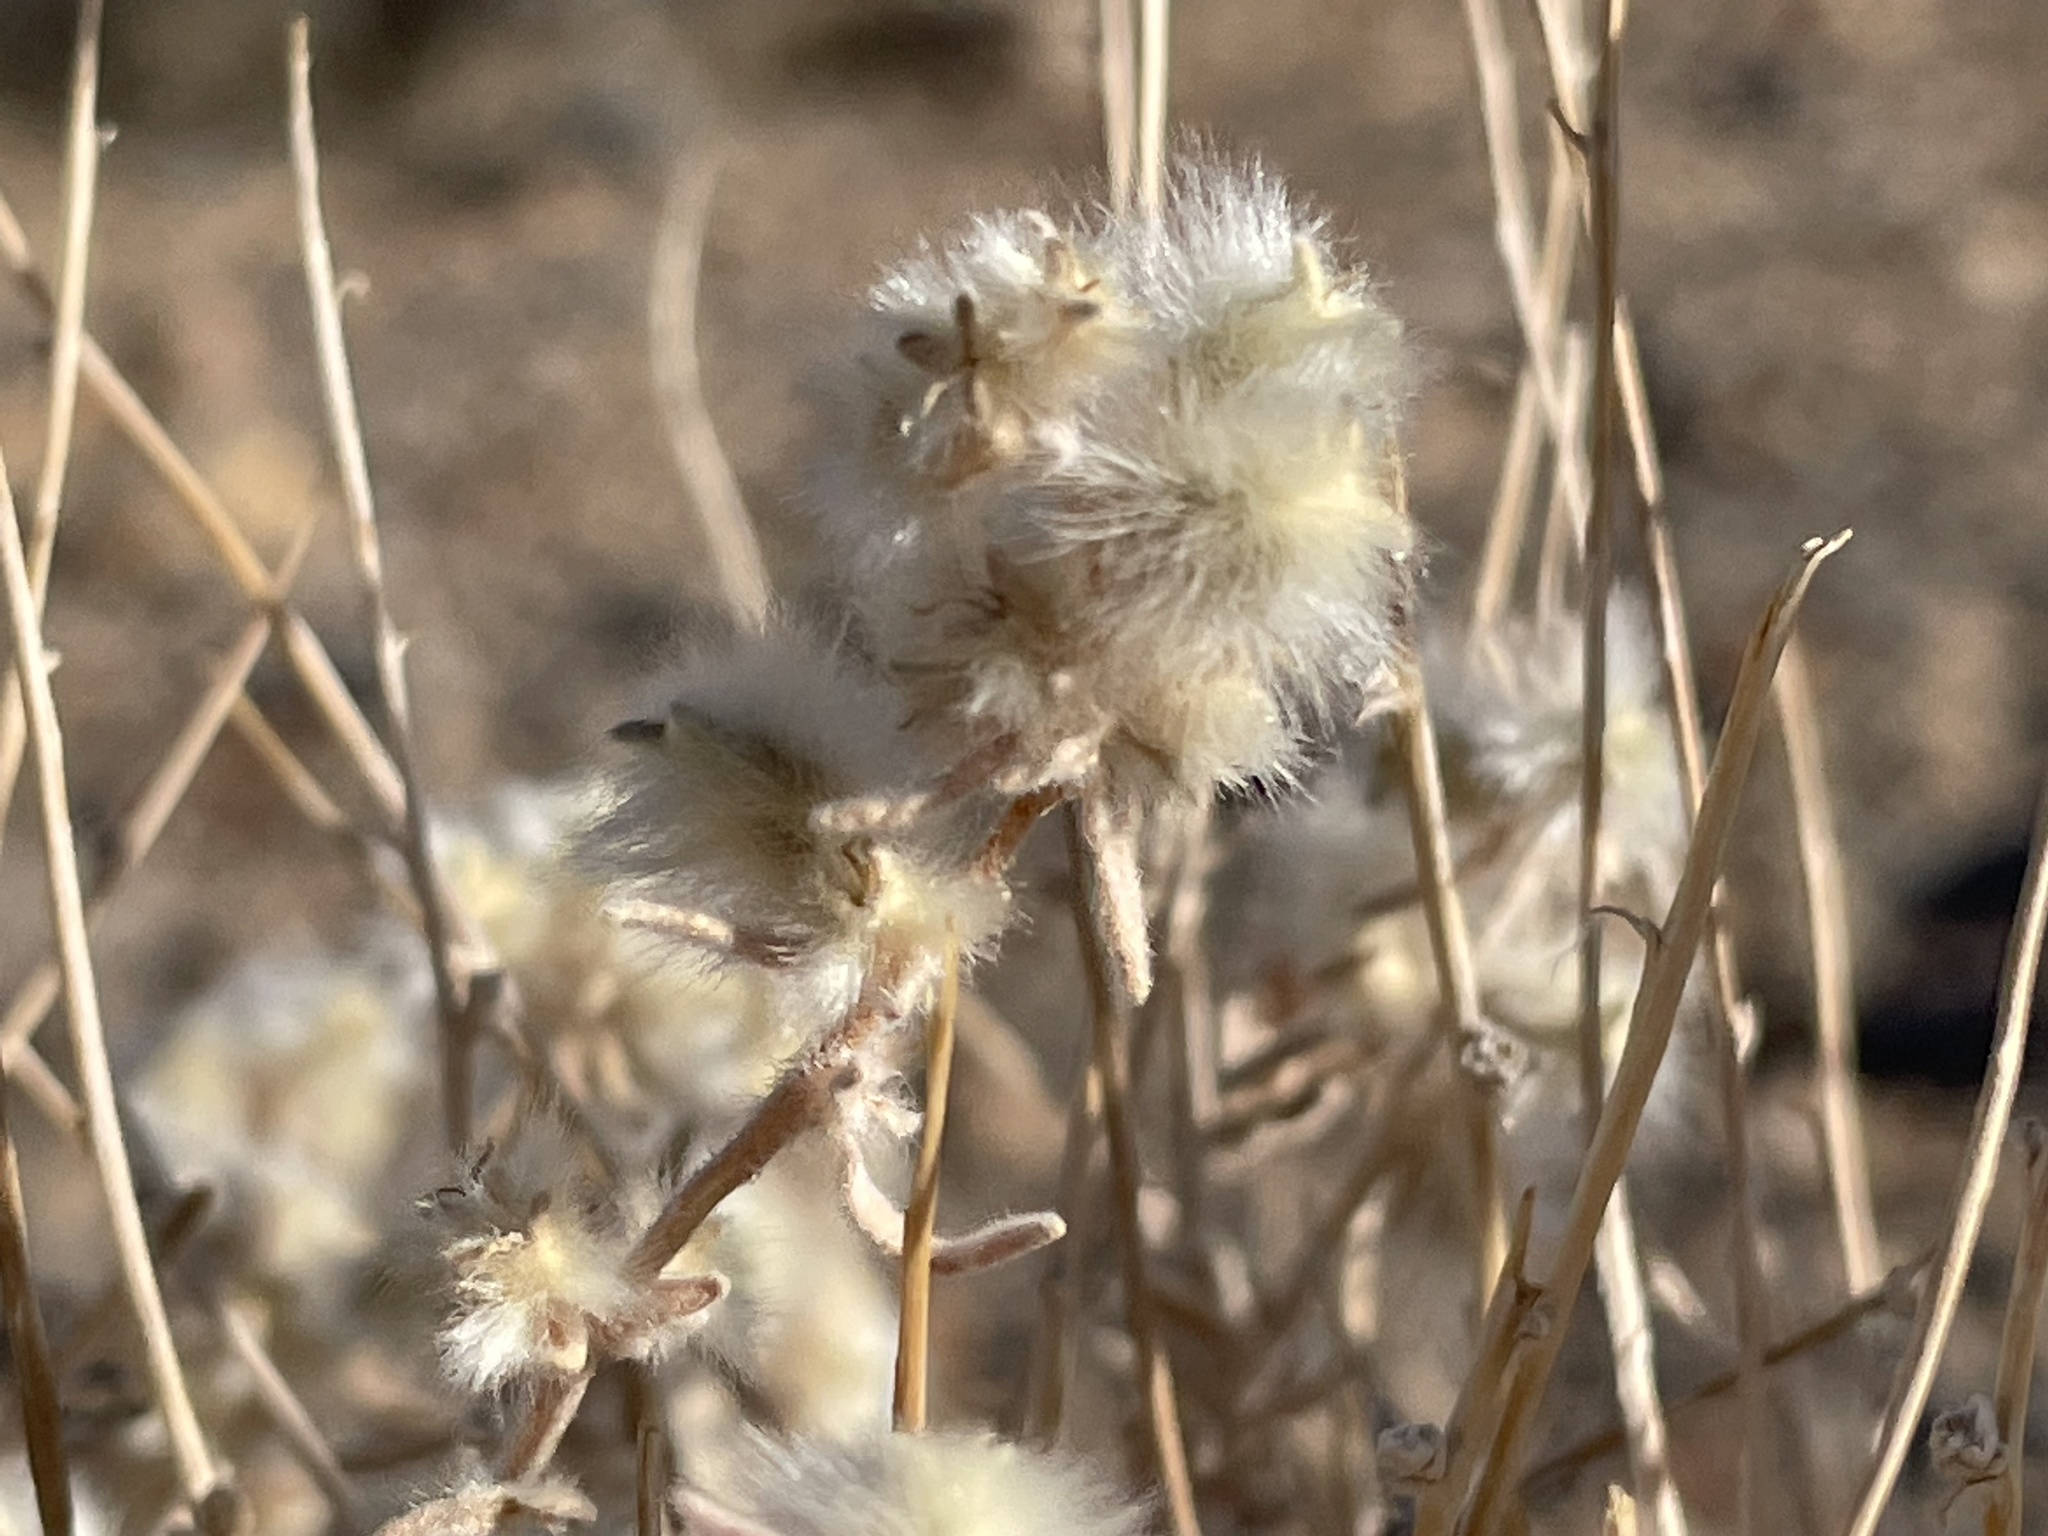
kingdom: Plantae
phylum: Tracheophyta
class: Magnoliopsida
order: Caryophyllales
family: Amaranthaceae
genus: Krascheninnikovia
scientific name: Krascheninnikovia lanata
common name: Winterfat
